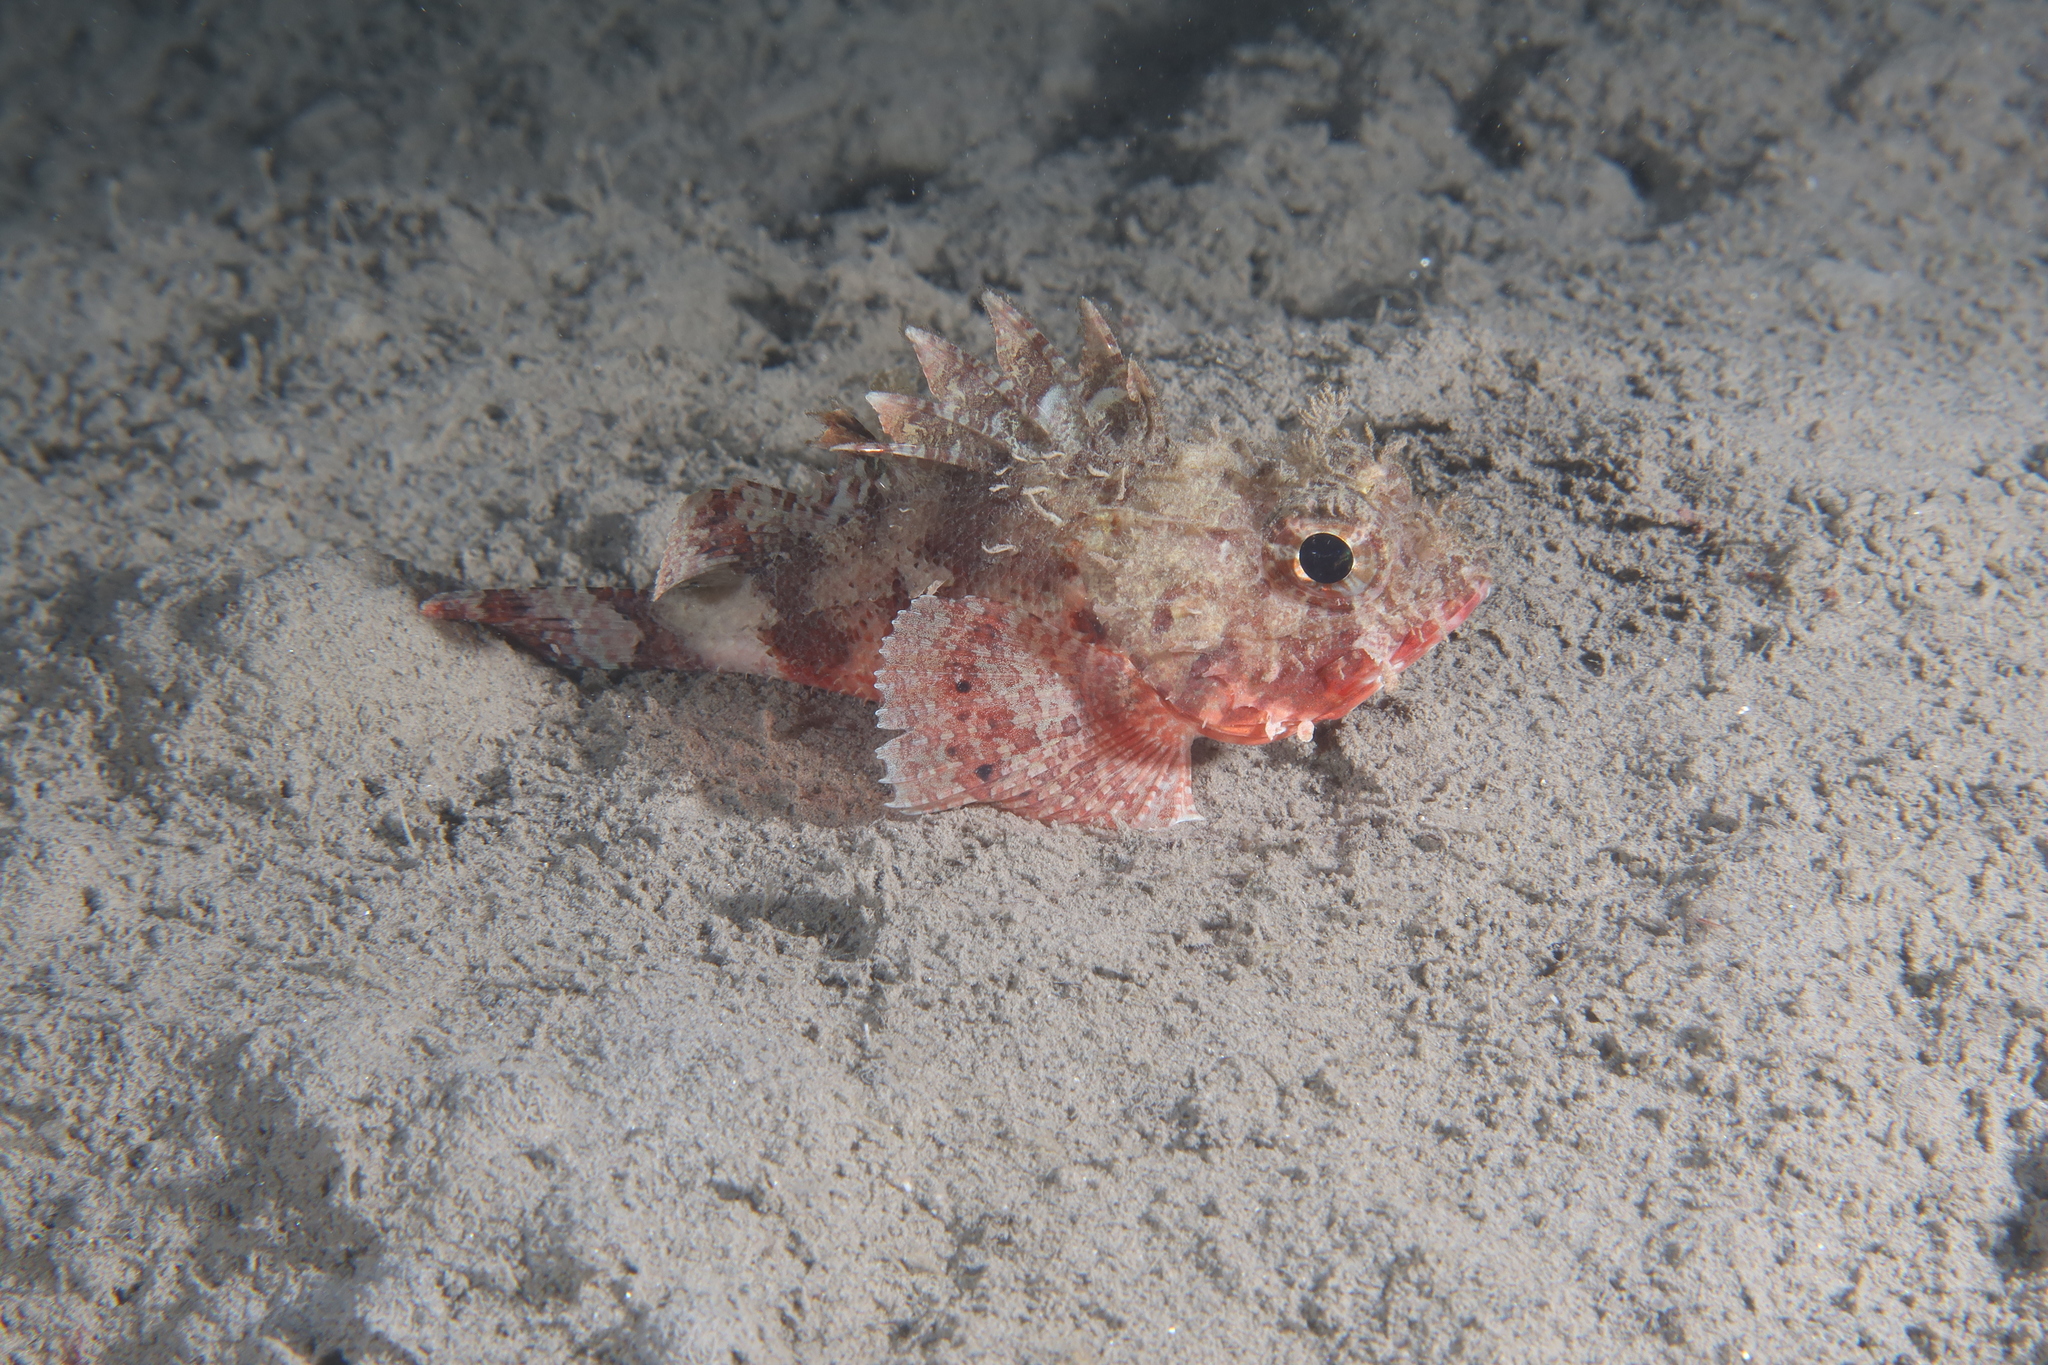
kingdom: Animalia
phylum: Chordata
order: Scorpaeniformes
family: Scorpaenidae
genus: Scorpaena
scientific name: Scorpaena notata
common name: Small red scorpionfish
